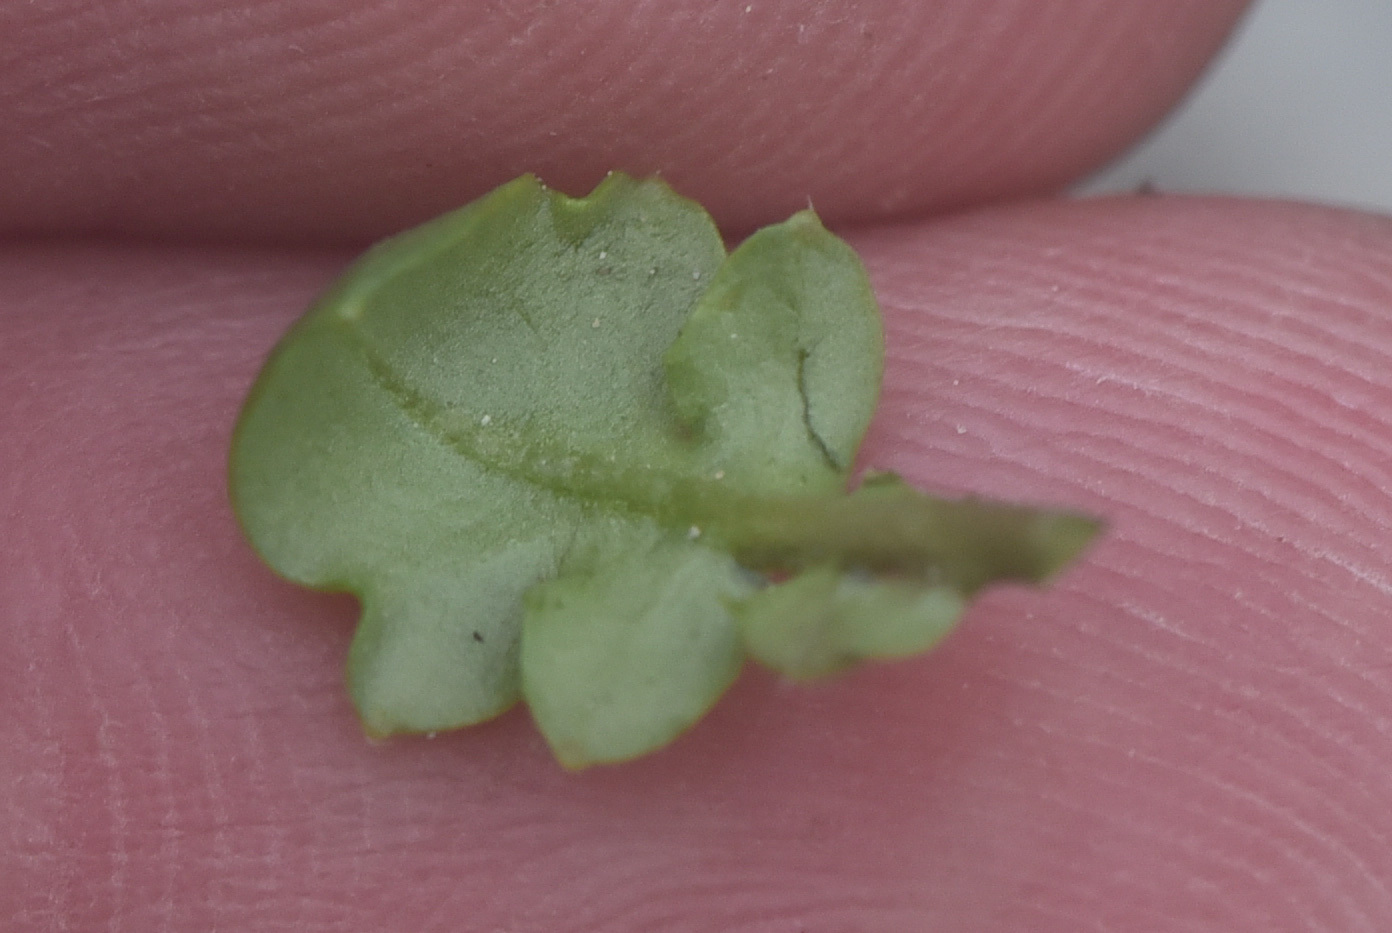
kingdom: Plantae
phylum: Tracheophyta
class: Magnoliopsida
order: Brassicales
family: Brassicaceae
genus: Arabidopsis
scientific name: Arabidopsis lyrata
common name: Lyrate rockcress
